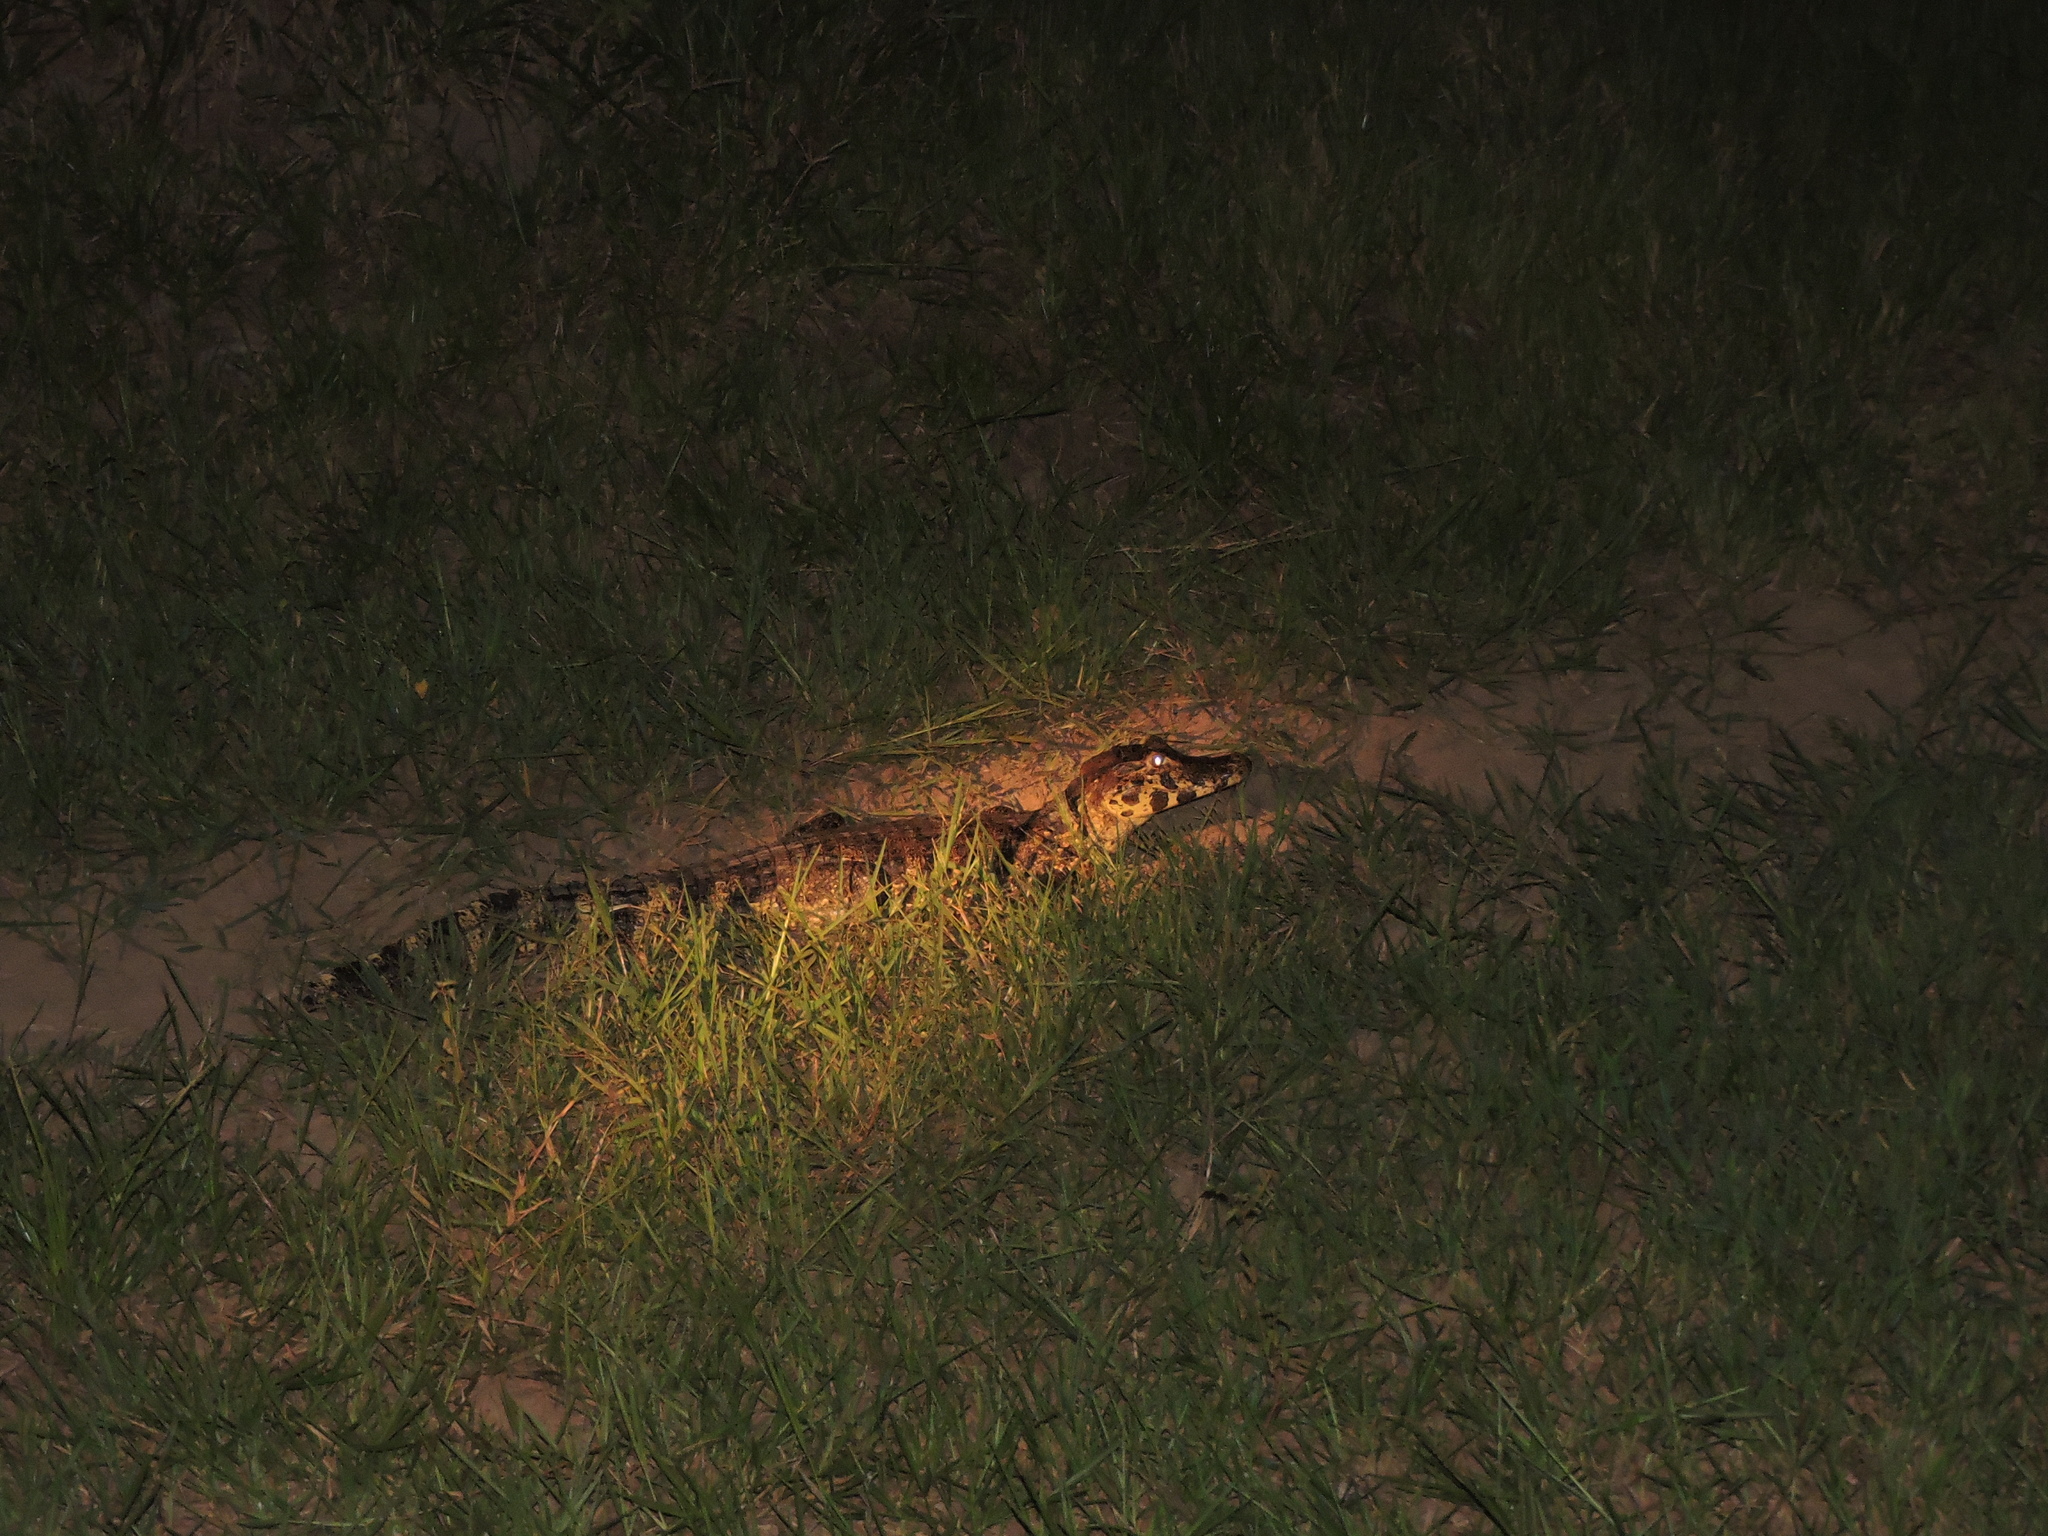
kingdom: Animalia
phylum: Chordata
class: Crocodylia
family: Alligatoridae
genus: Caiman
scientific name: Caiman yacare
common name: Yacare caiman
